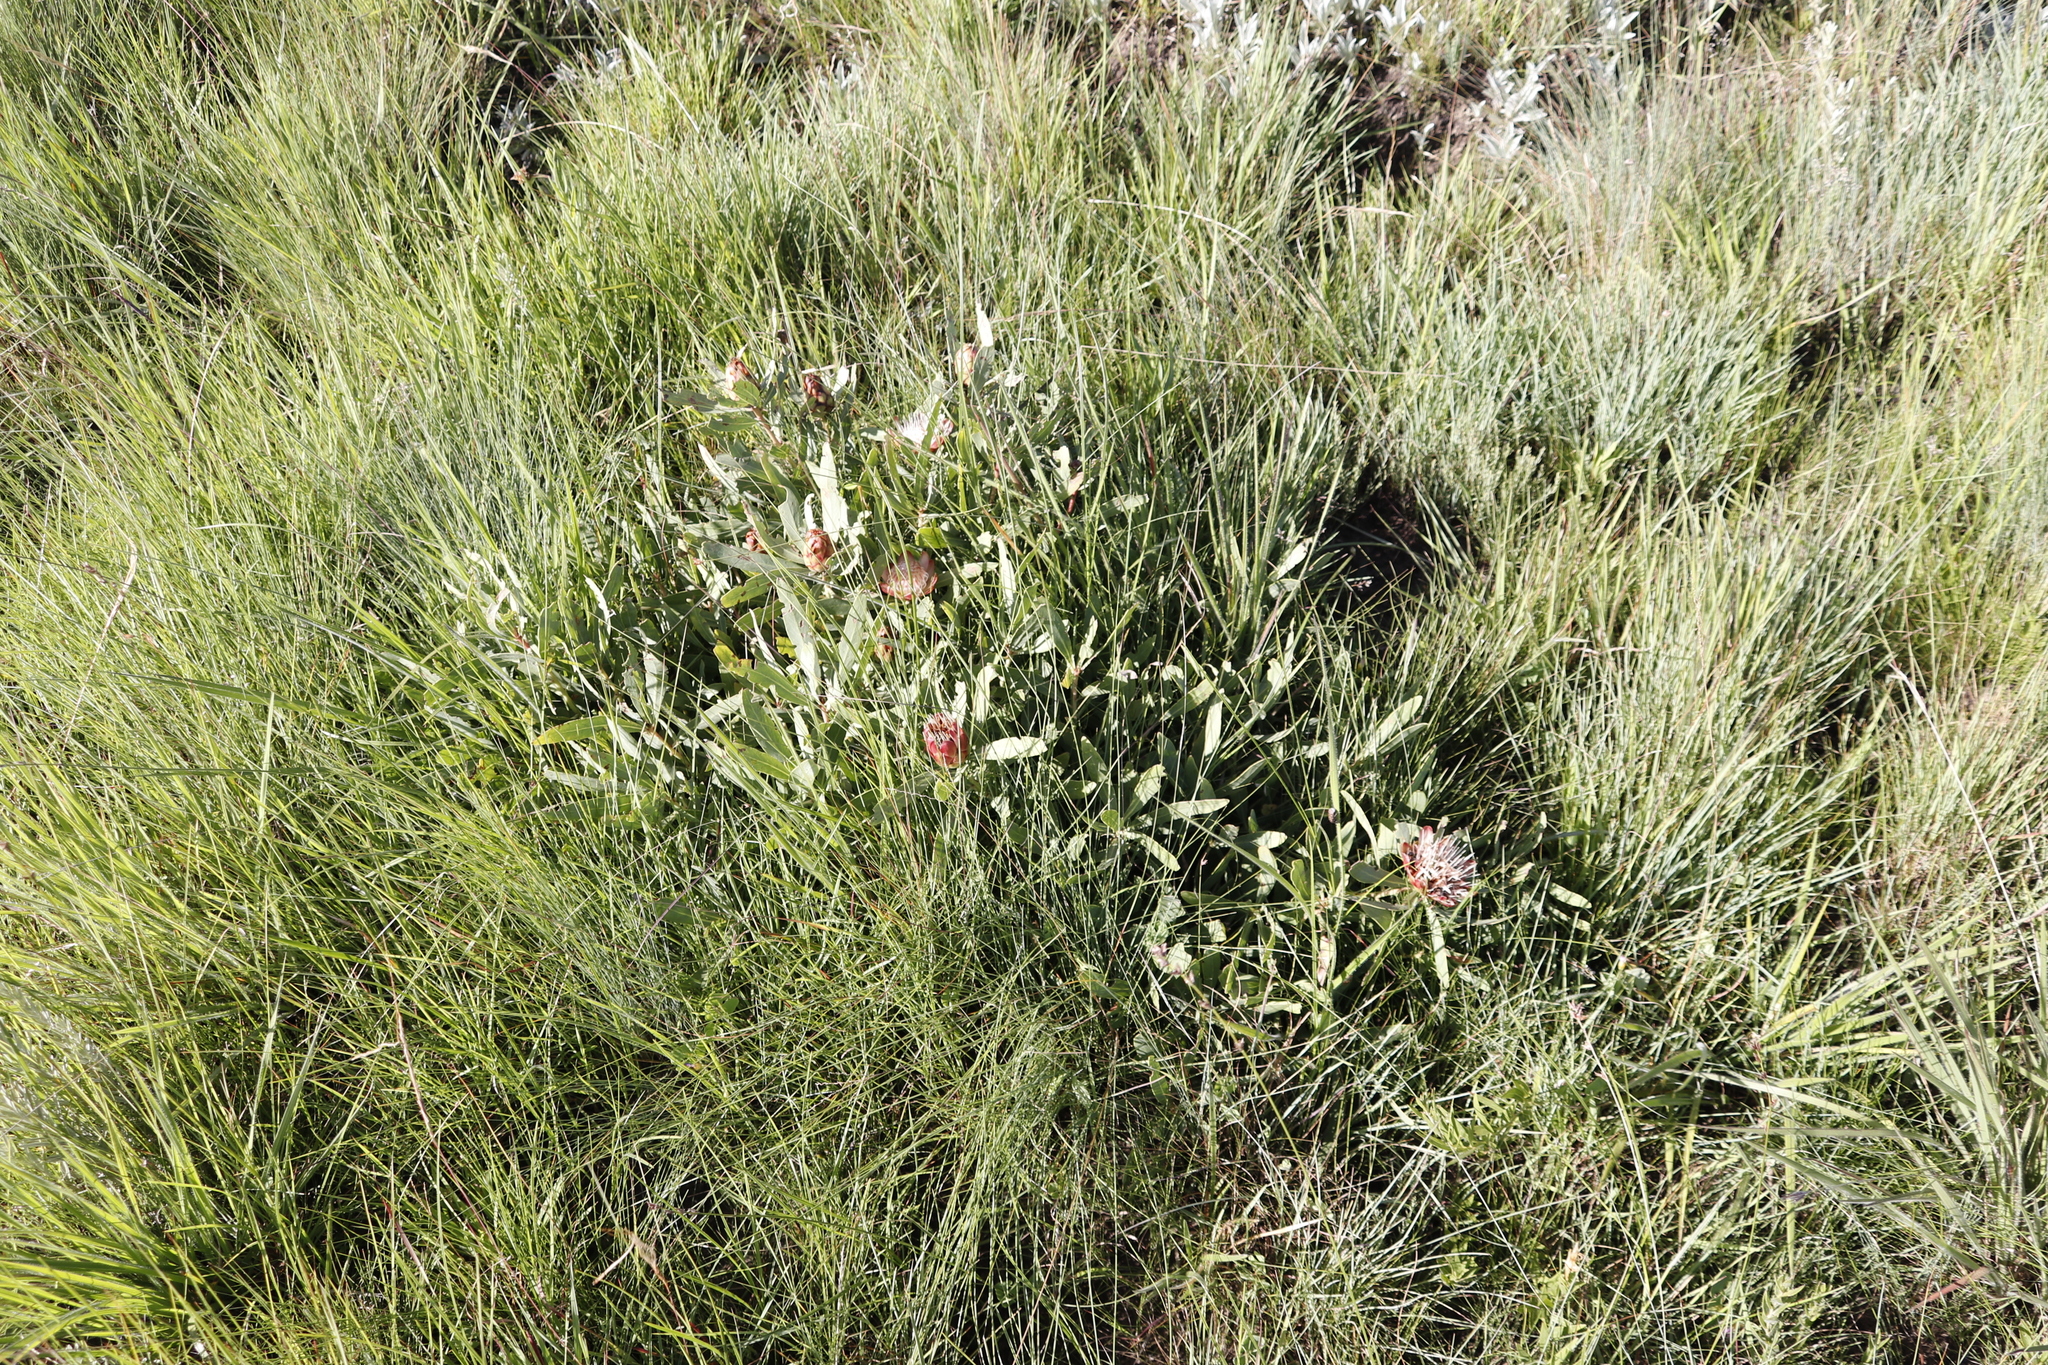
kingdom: Plantae
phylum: Tracheophyta
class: Magnoliopsida
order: Proteales
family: Proteaceae
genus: Protea
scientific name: Protea simplex
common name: Dwarf grassveld sugarbush
